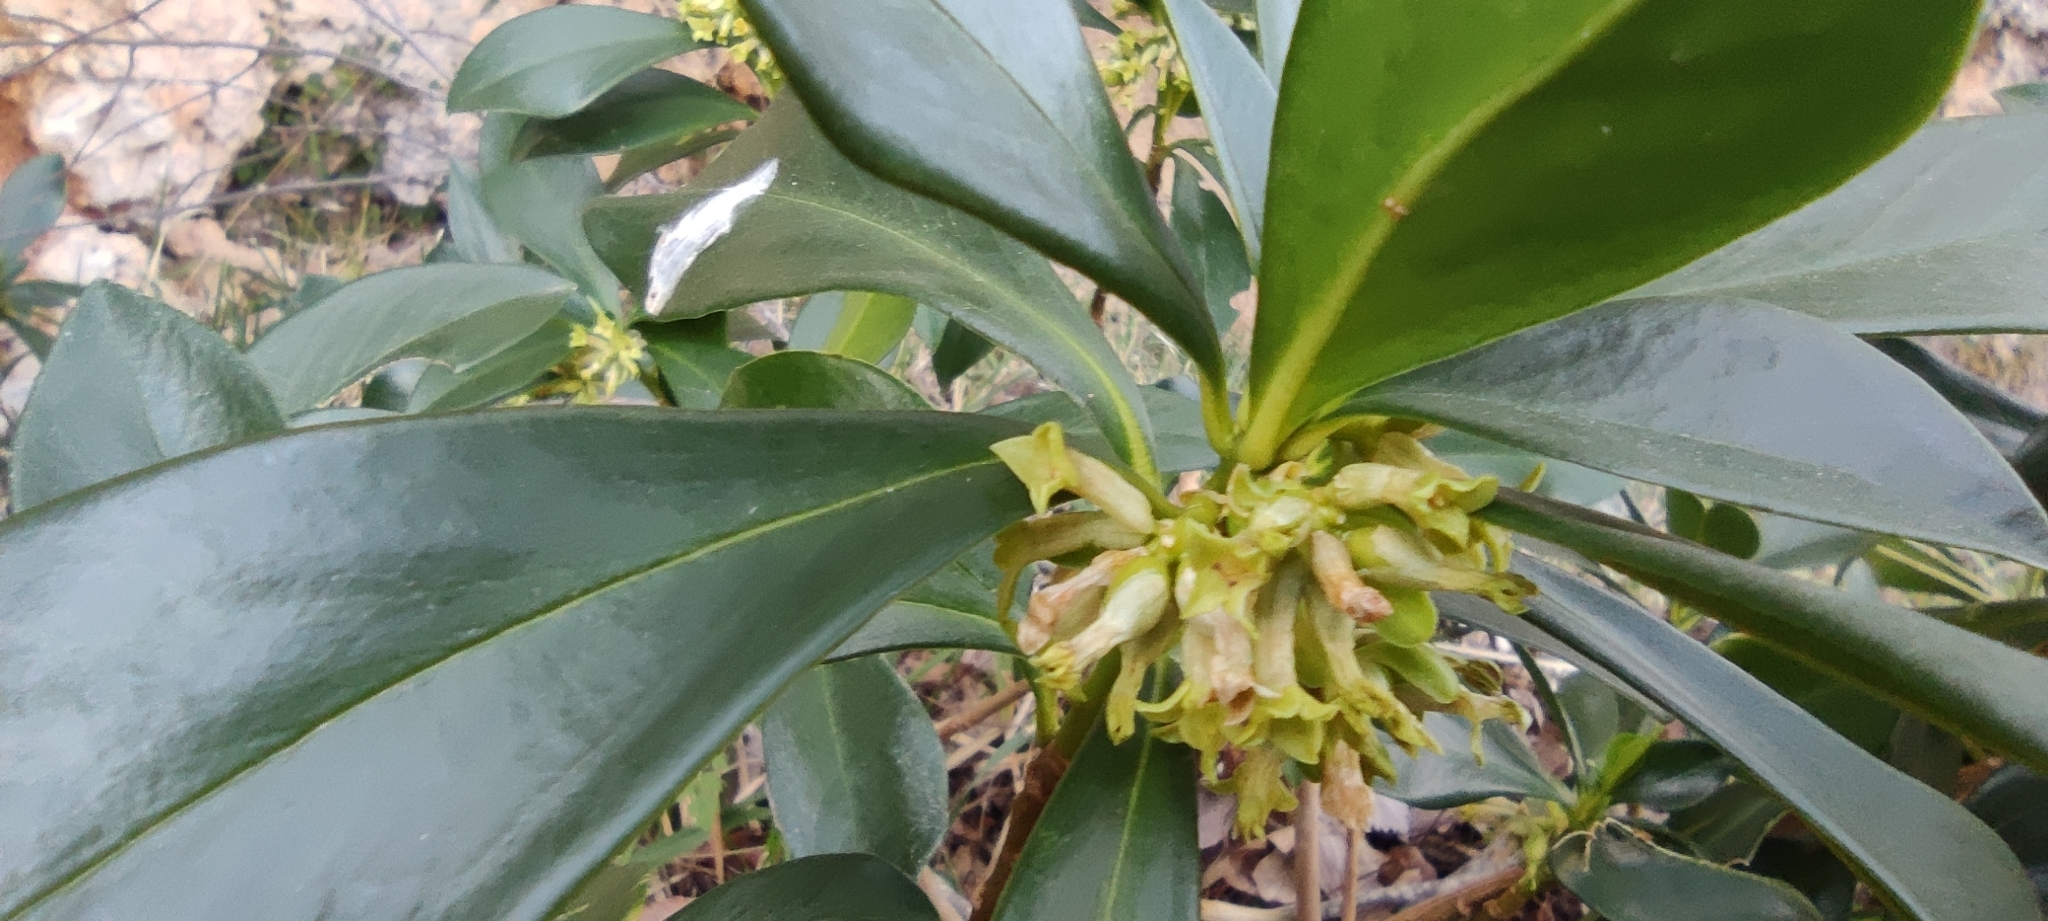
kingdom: Plantae
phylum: Tracheophyta
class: Magnoliopsida
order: Malvales
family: Thymelaeaceae
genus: Daphne
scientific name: Daphne laureola
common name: Spurge-laurel
